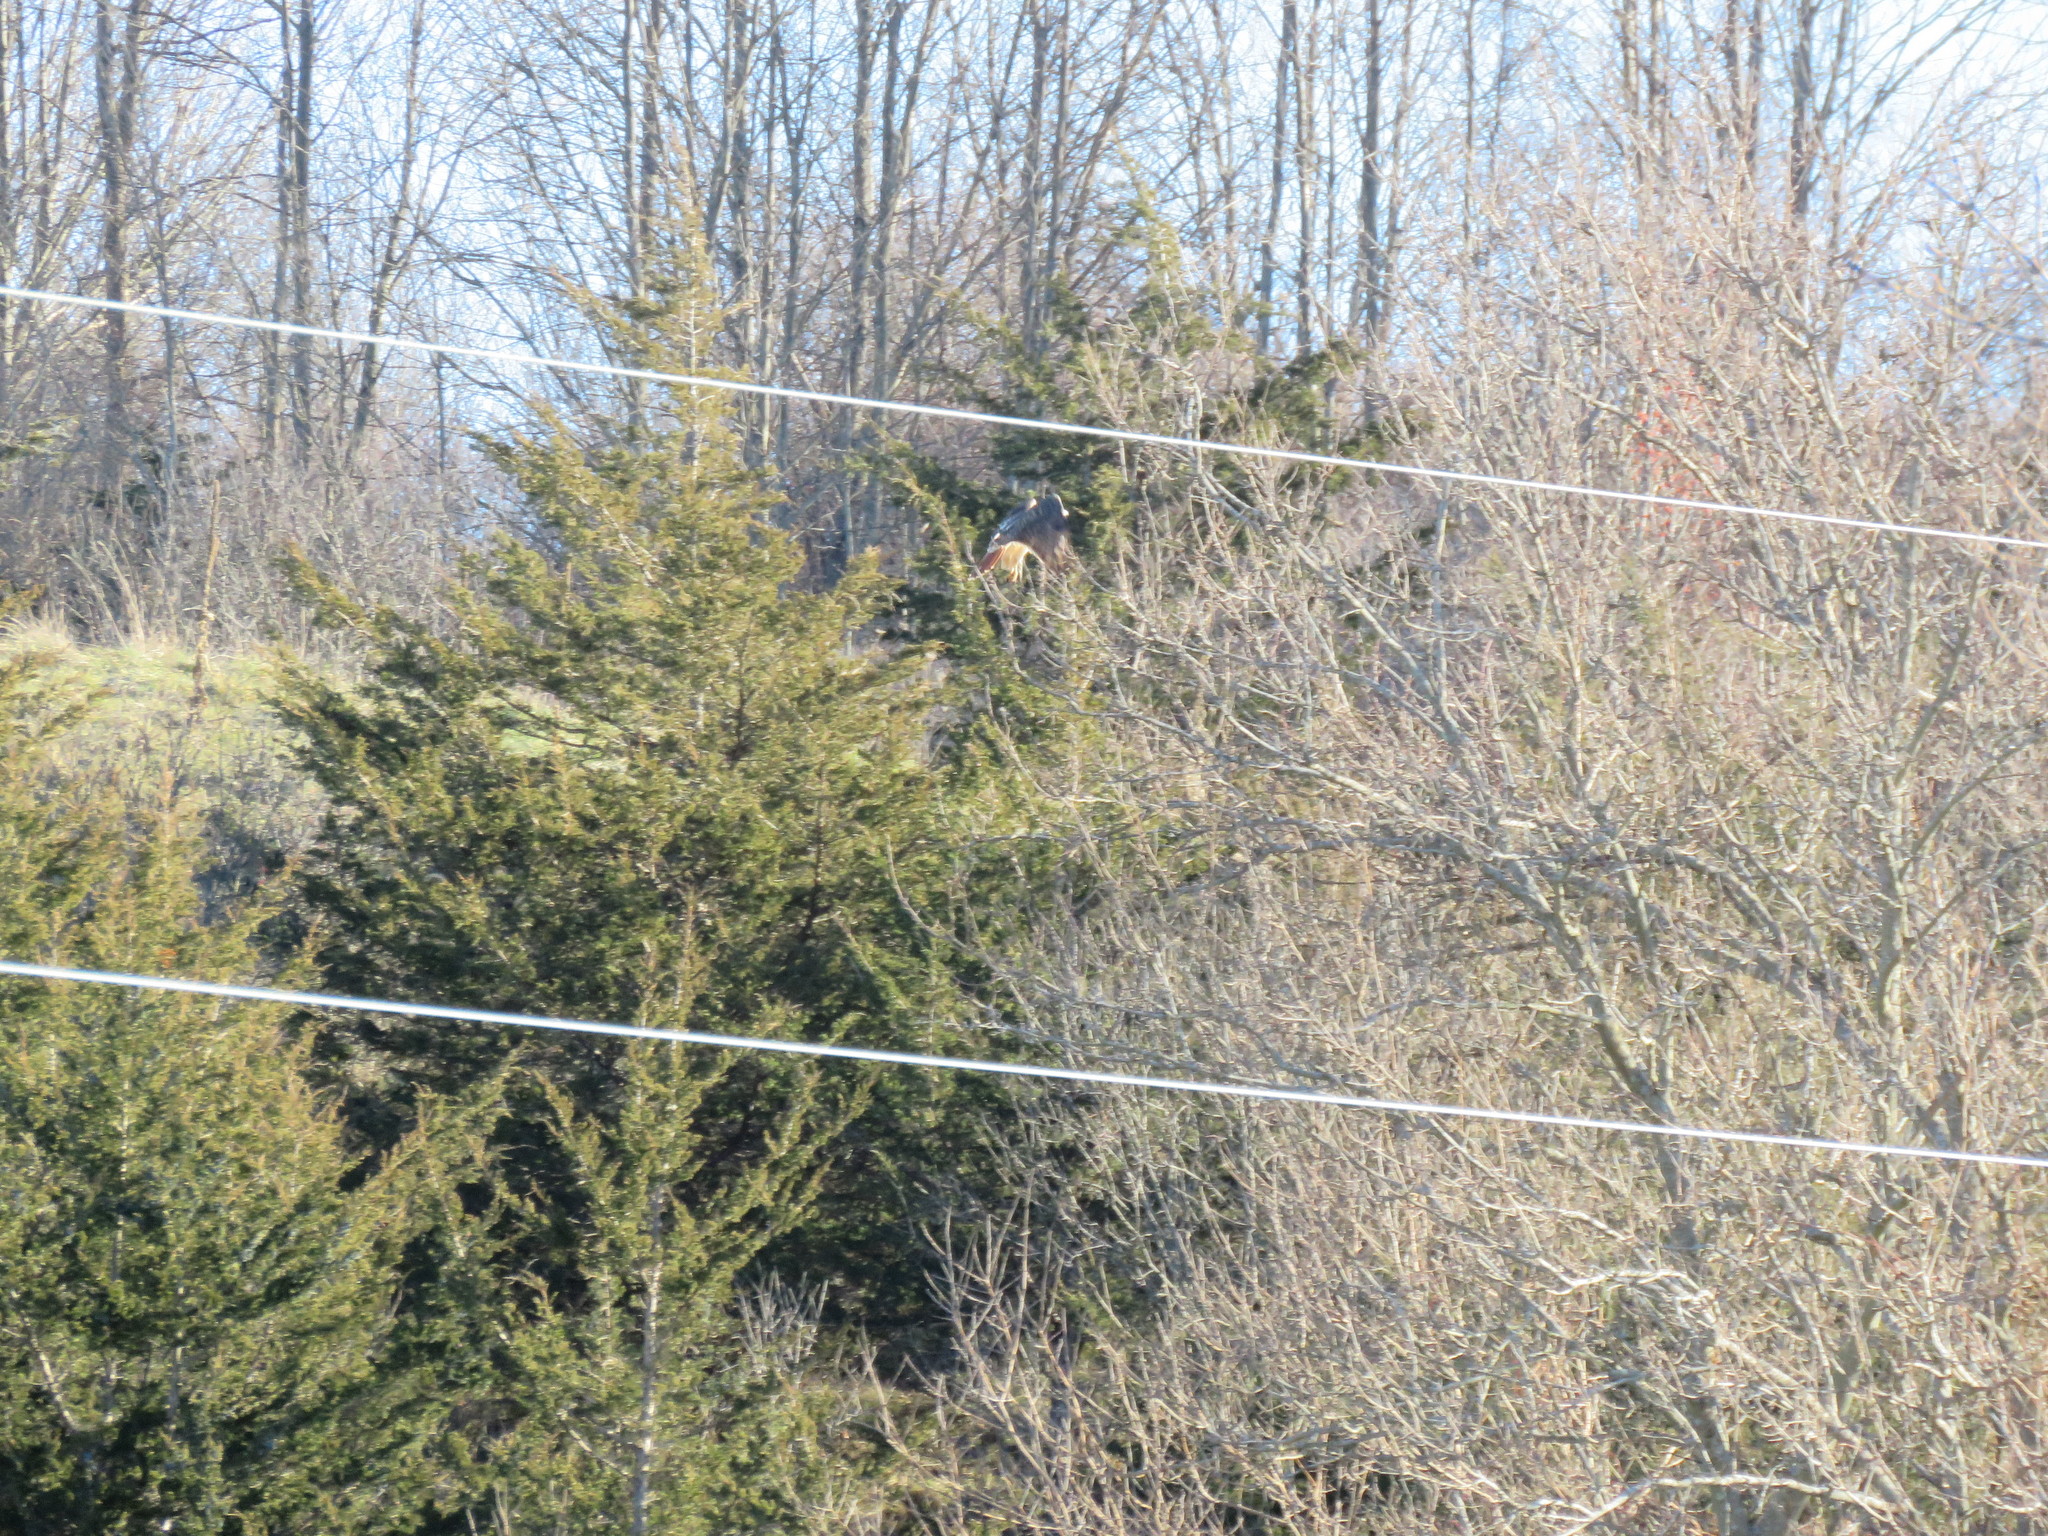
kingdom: Animalia
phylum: Chordata
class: Aves
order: Accipitriformes
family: Accipitridae
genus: Buteo
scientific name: Buteo jamaicensis
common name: Red-tailed hawk
